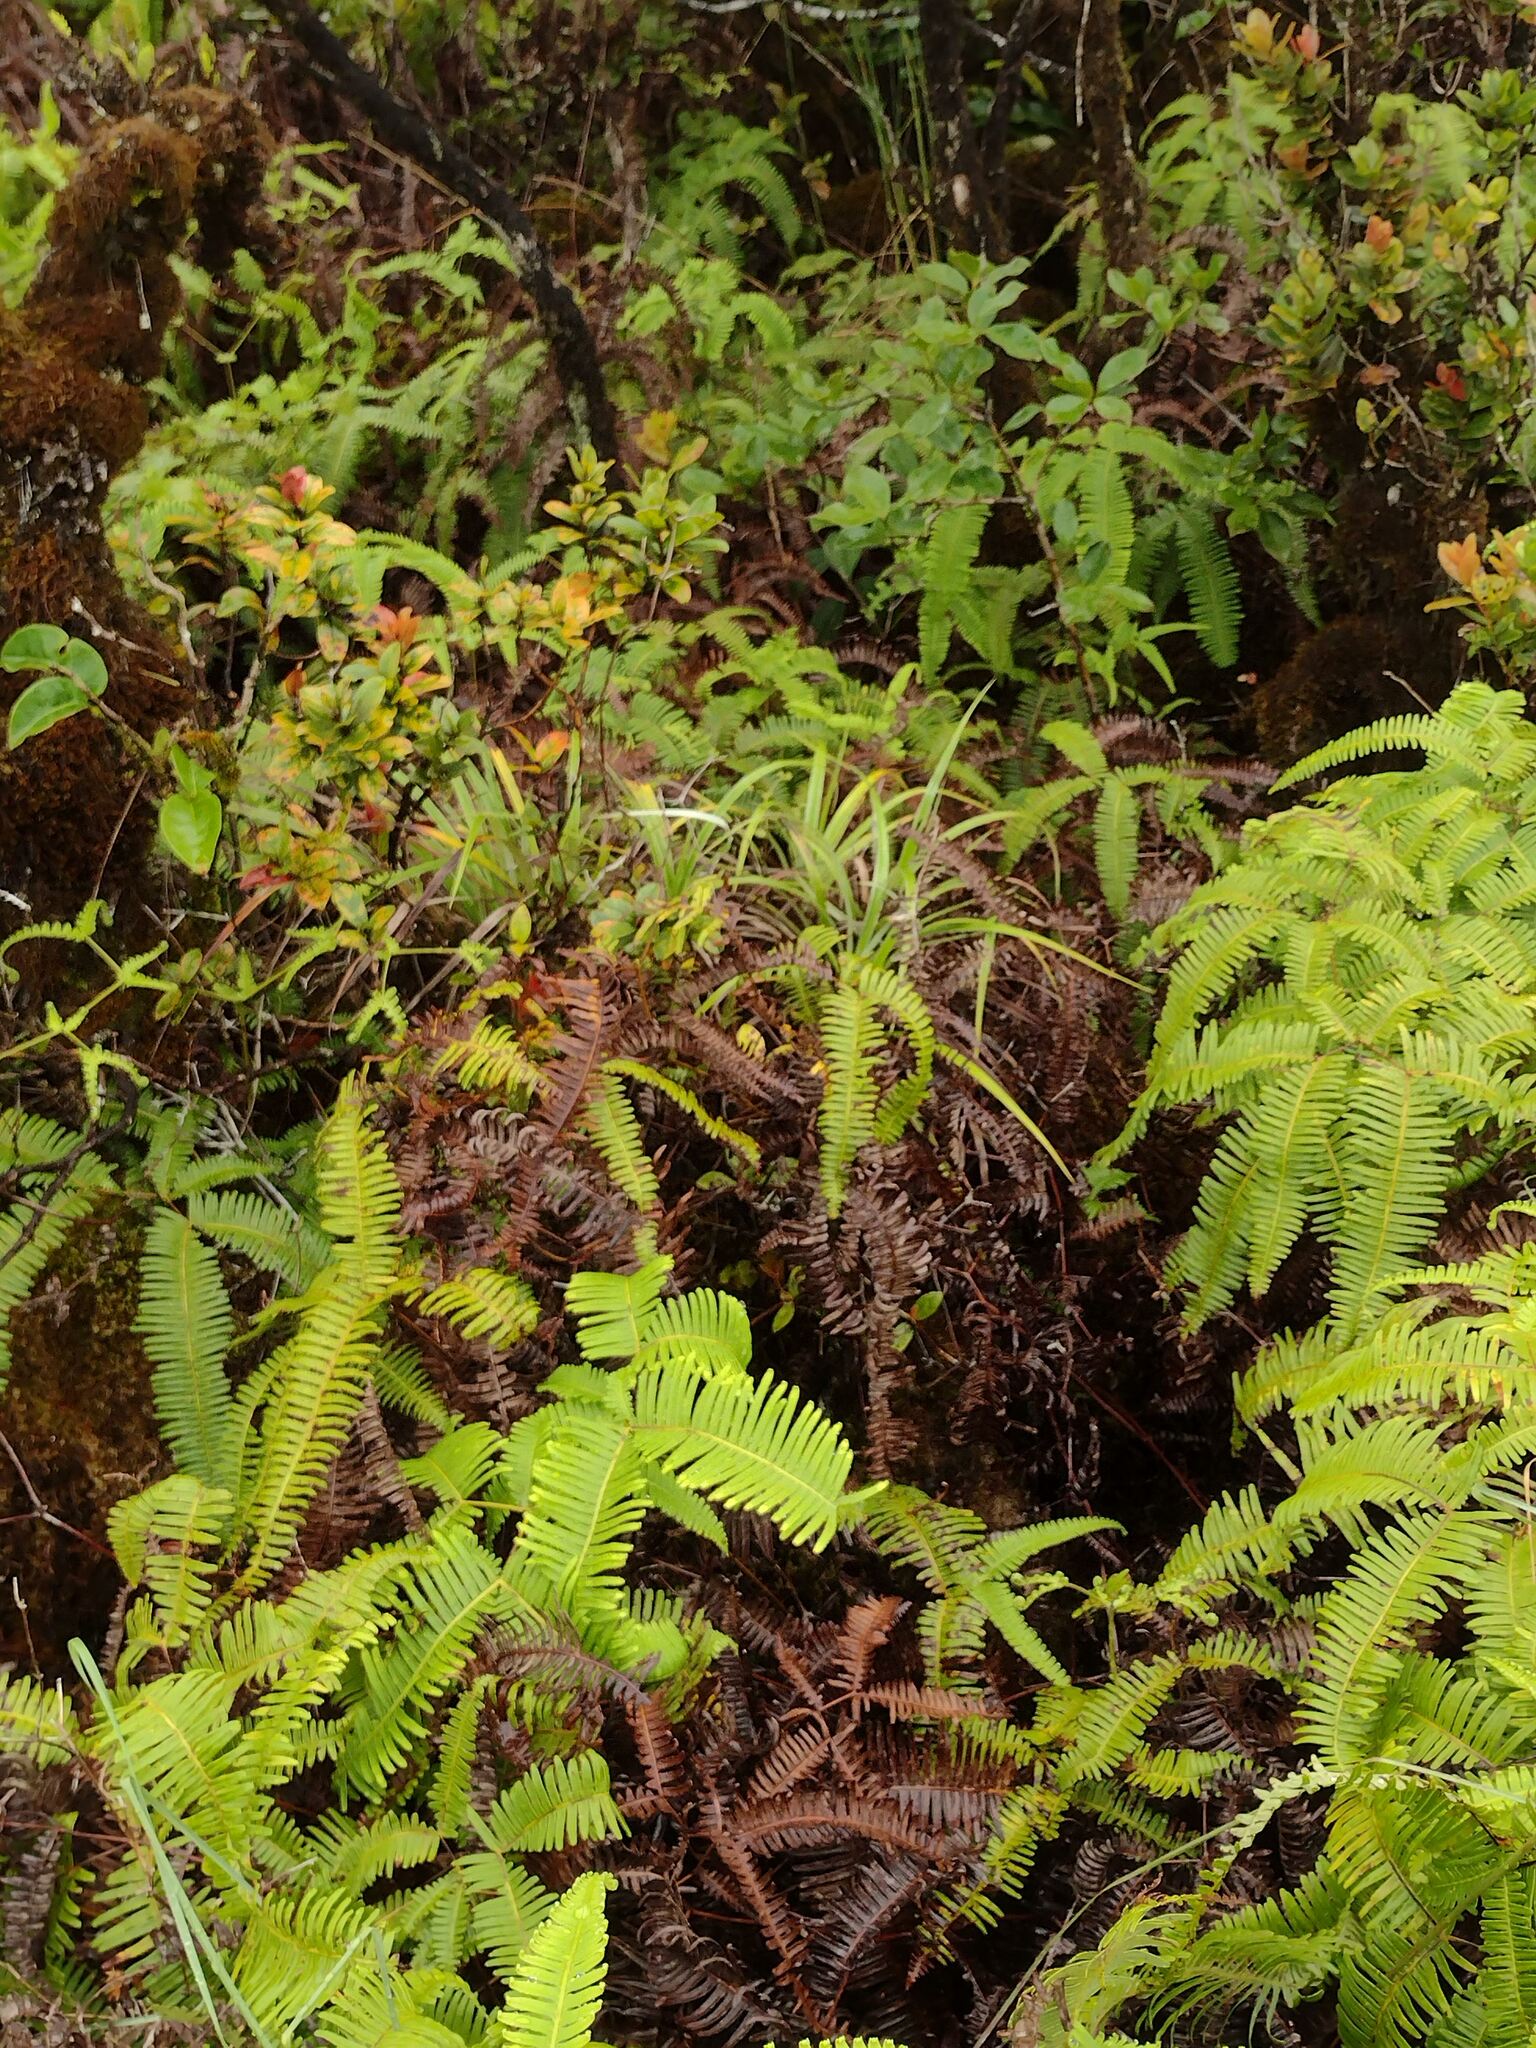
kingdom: Plantae
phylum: Tracheophyta
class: Liliopsida
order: Asparagales
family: Asteliaceae
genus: Astelia
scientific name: Astelia argyrocoma
